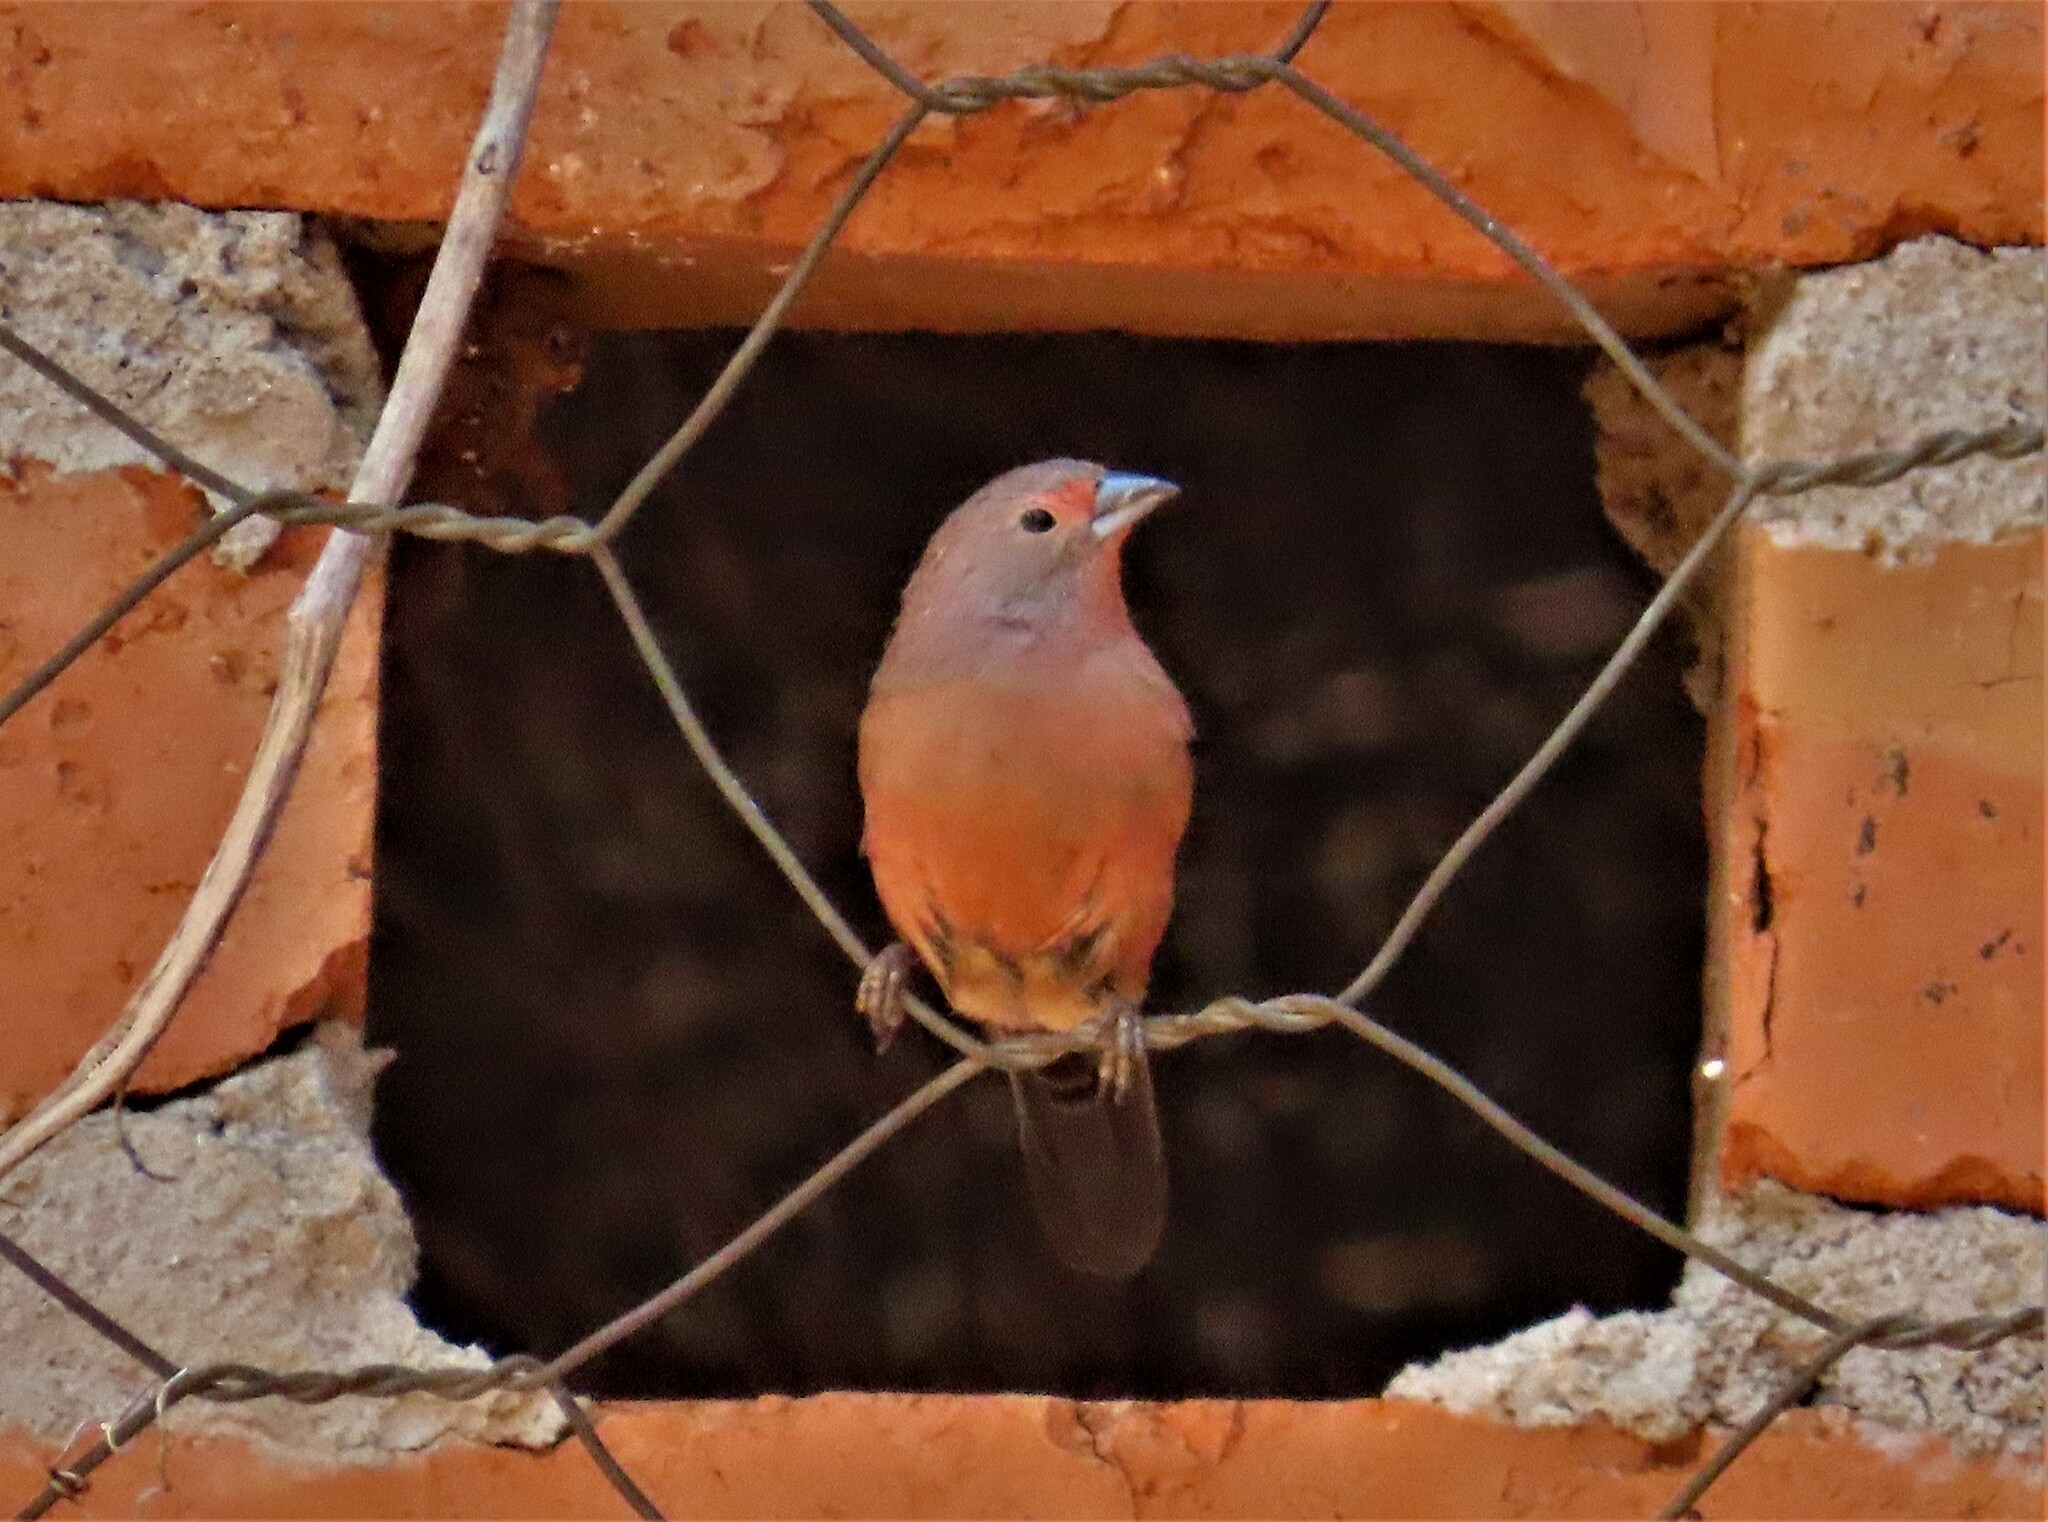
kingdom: Animalia
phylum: Chordata
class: Aves
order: Passeriformes
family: Estrildidae
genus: Lagonosticta
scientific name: Lagonosticta rhodopareia
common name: Jameson's firefinch
